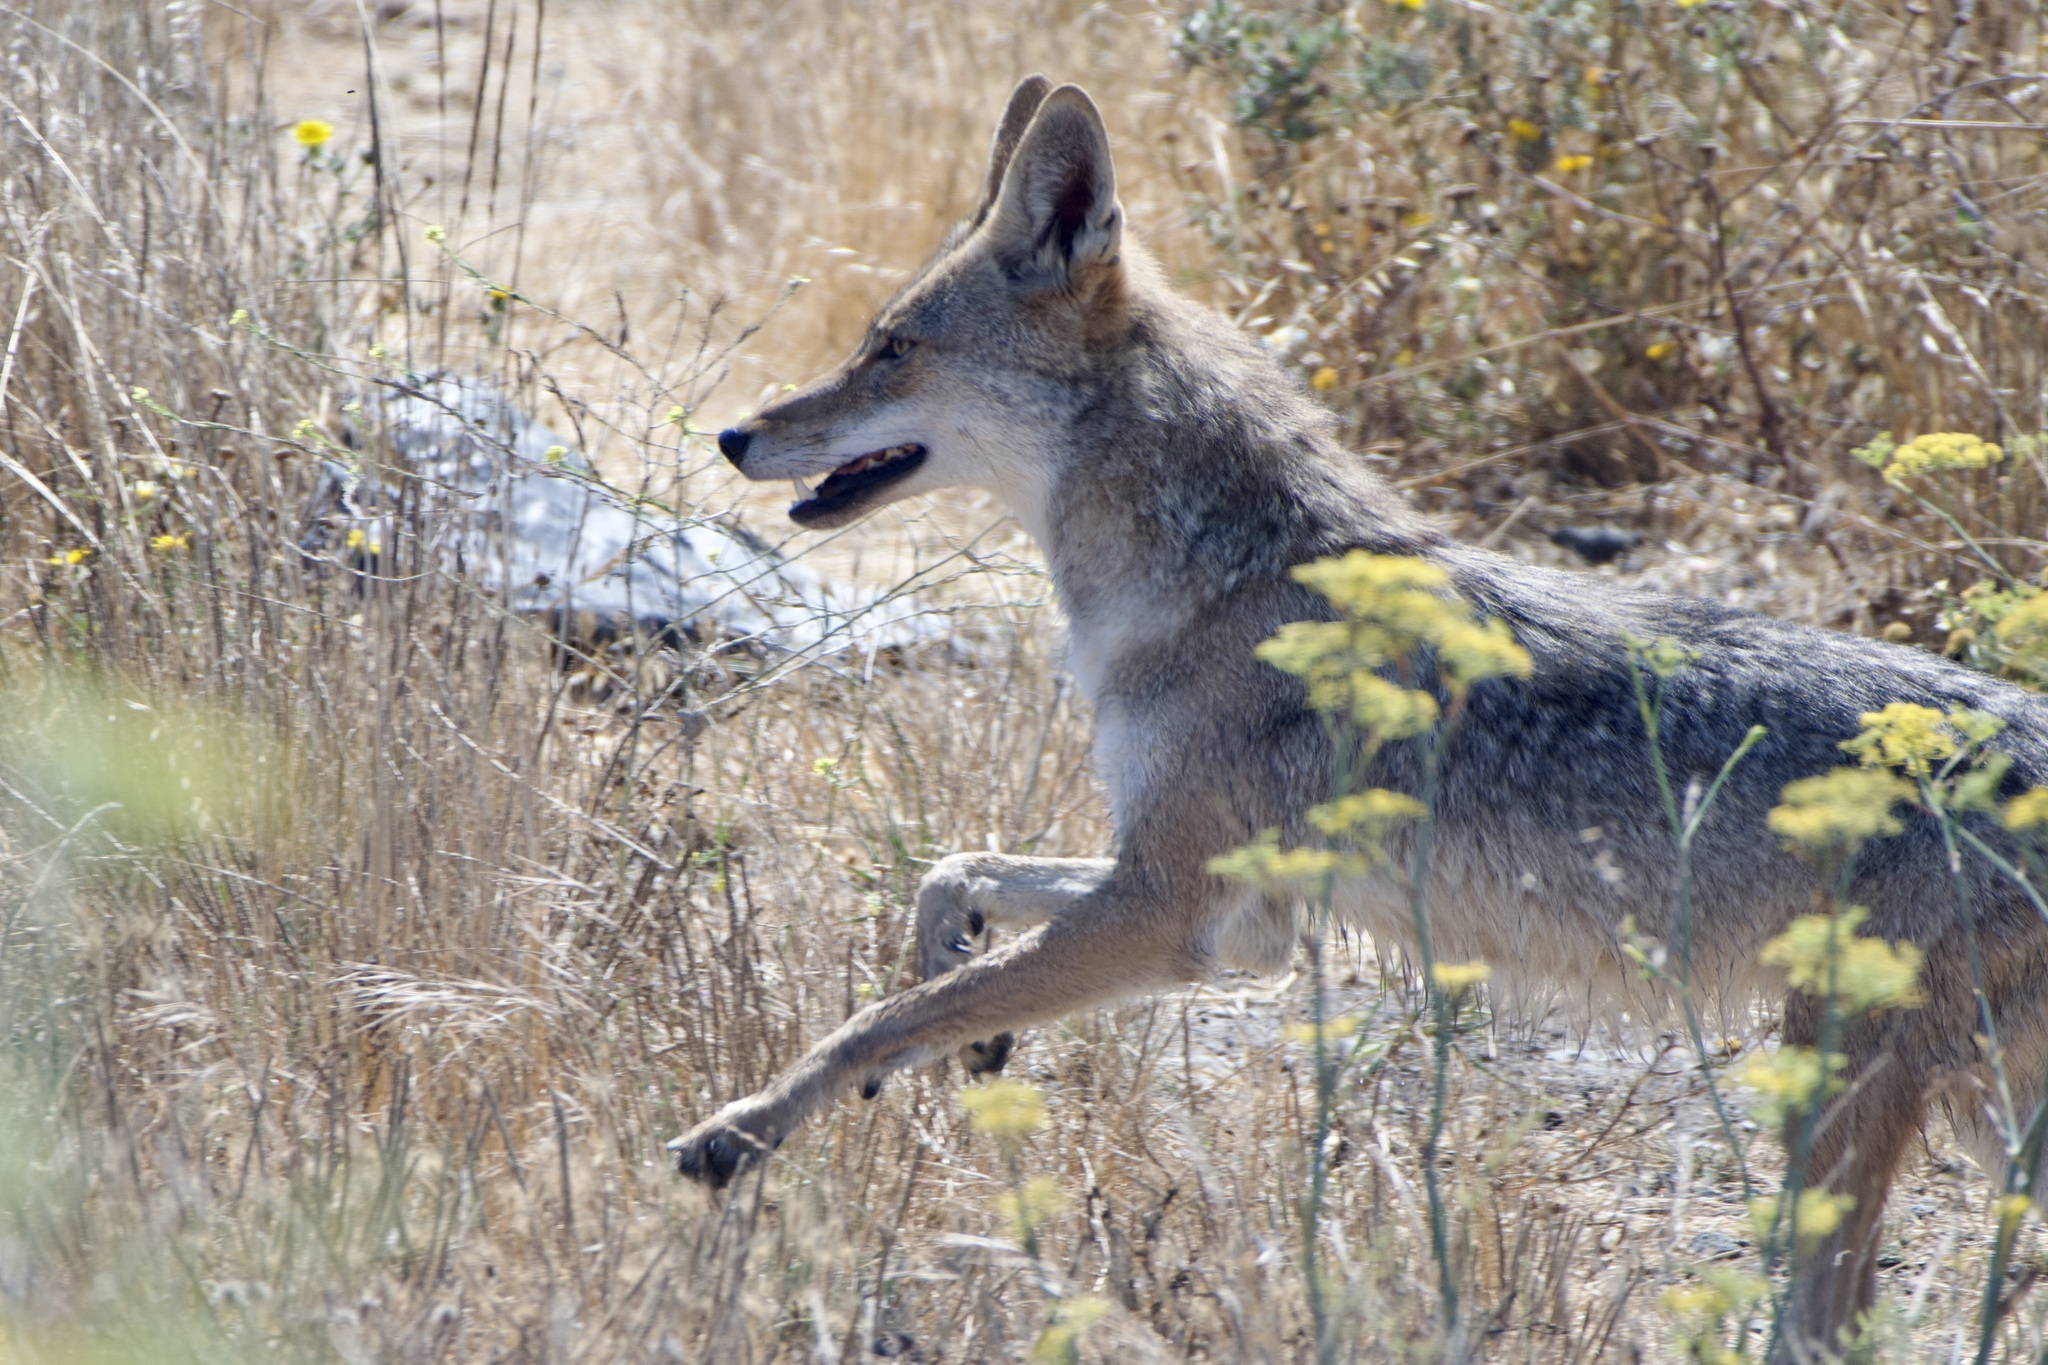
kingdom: Animalia
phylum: Chordata
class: Mammalia
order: Carnivora
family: Canidae
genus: Canis
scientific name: Canis latrans
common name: Coyote
